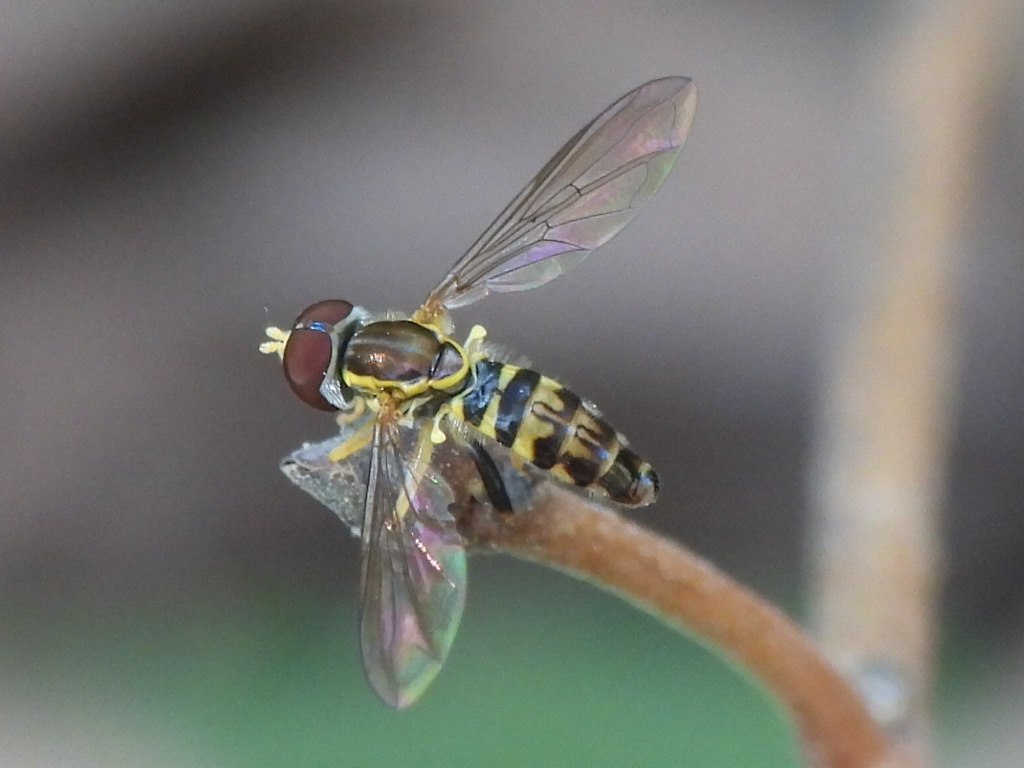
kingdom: Animalia
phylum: Arthropoda
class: Insecta
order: Diptera
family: Syrphidae
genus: Toxomerus
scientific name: Toxomerus geminatus
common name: Eastern calligrapher
